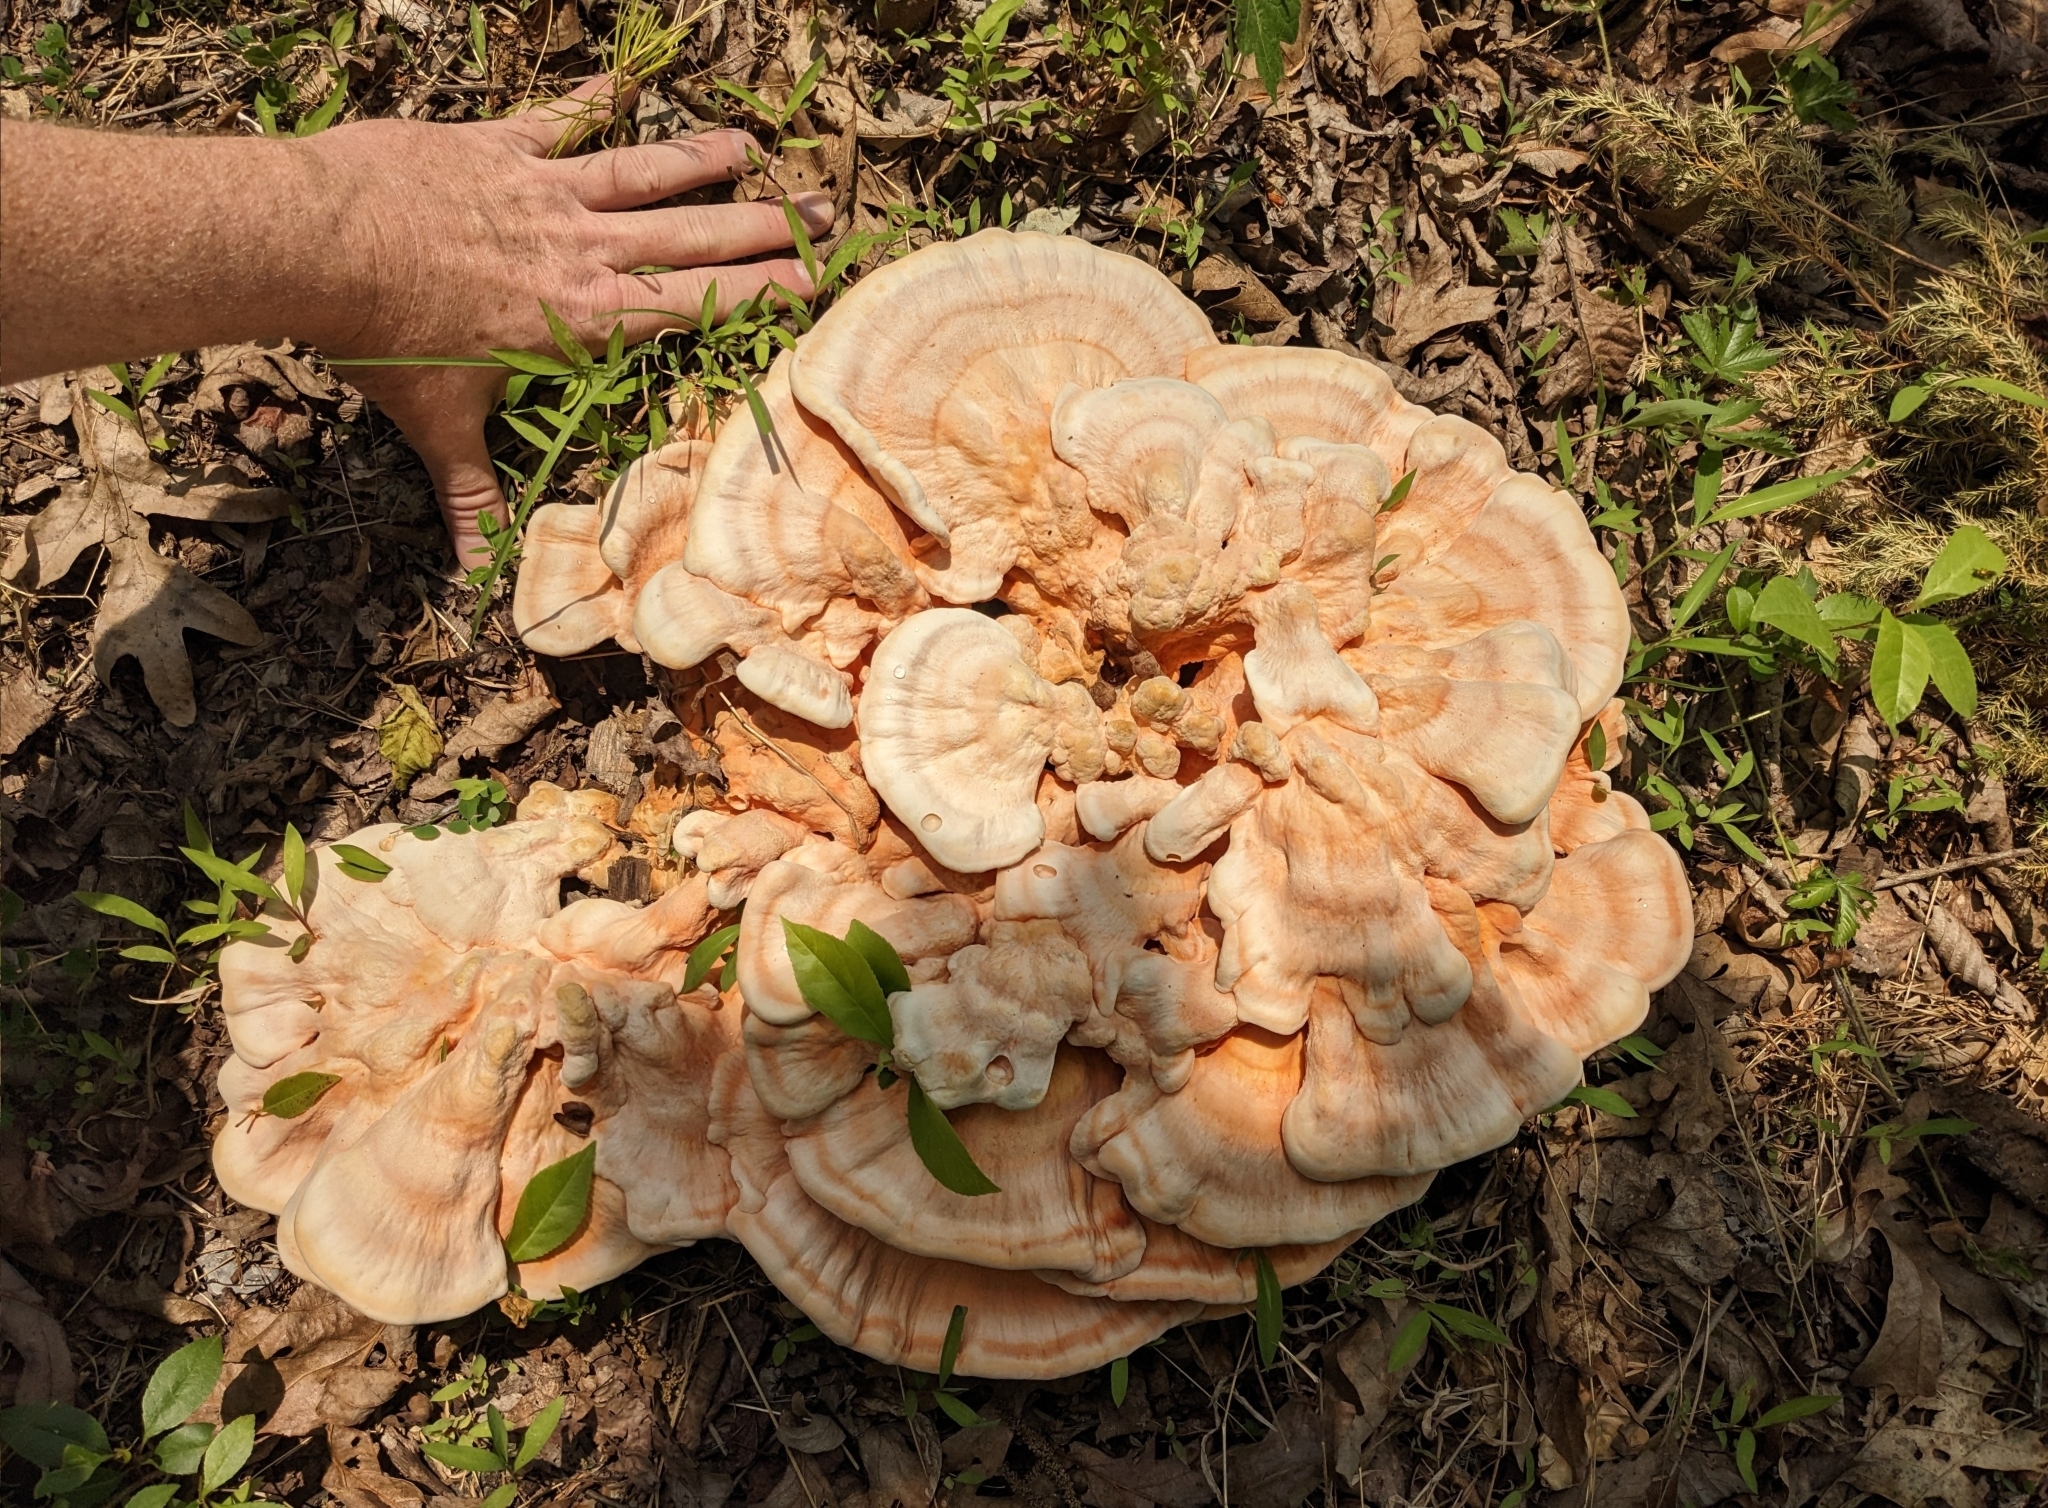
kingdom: Fungi
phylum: Basidiomycota
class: Agaricomycetes
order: Polyporales
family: Laetiporaceae
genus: Laetiporus
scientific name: Laetiporus sulphureus
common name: Chicken of the woods
